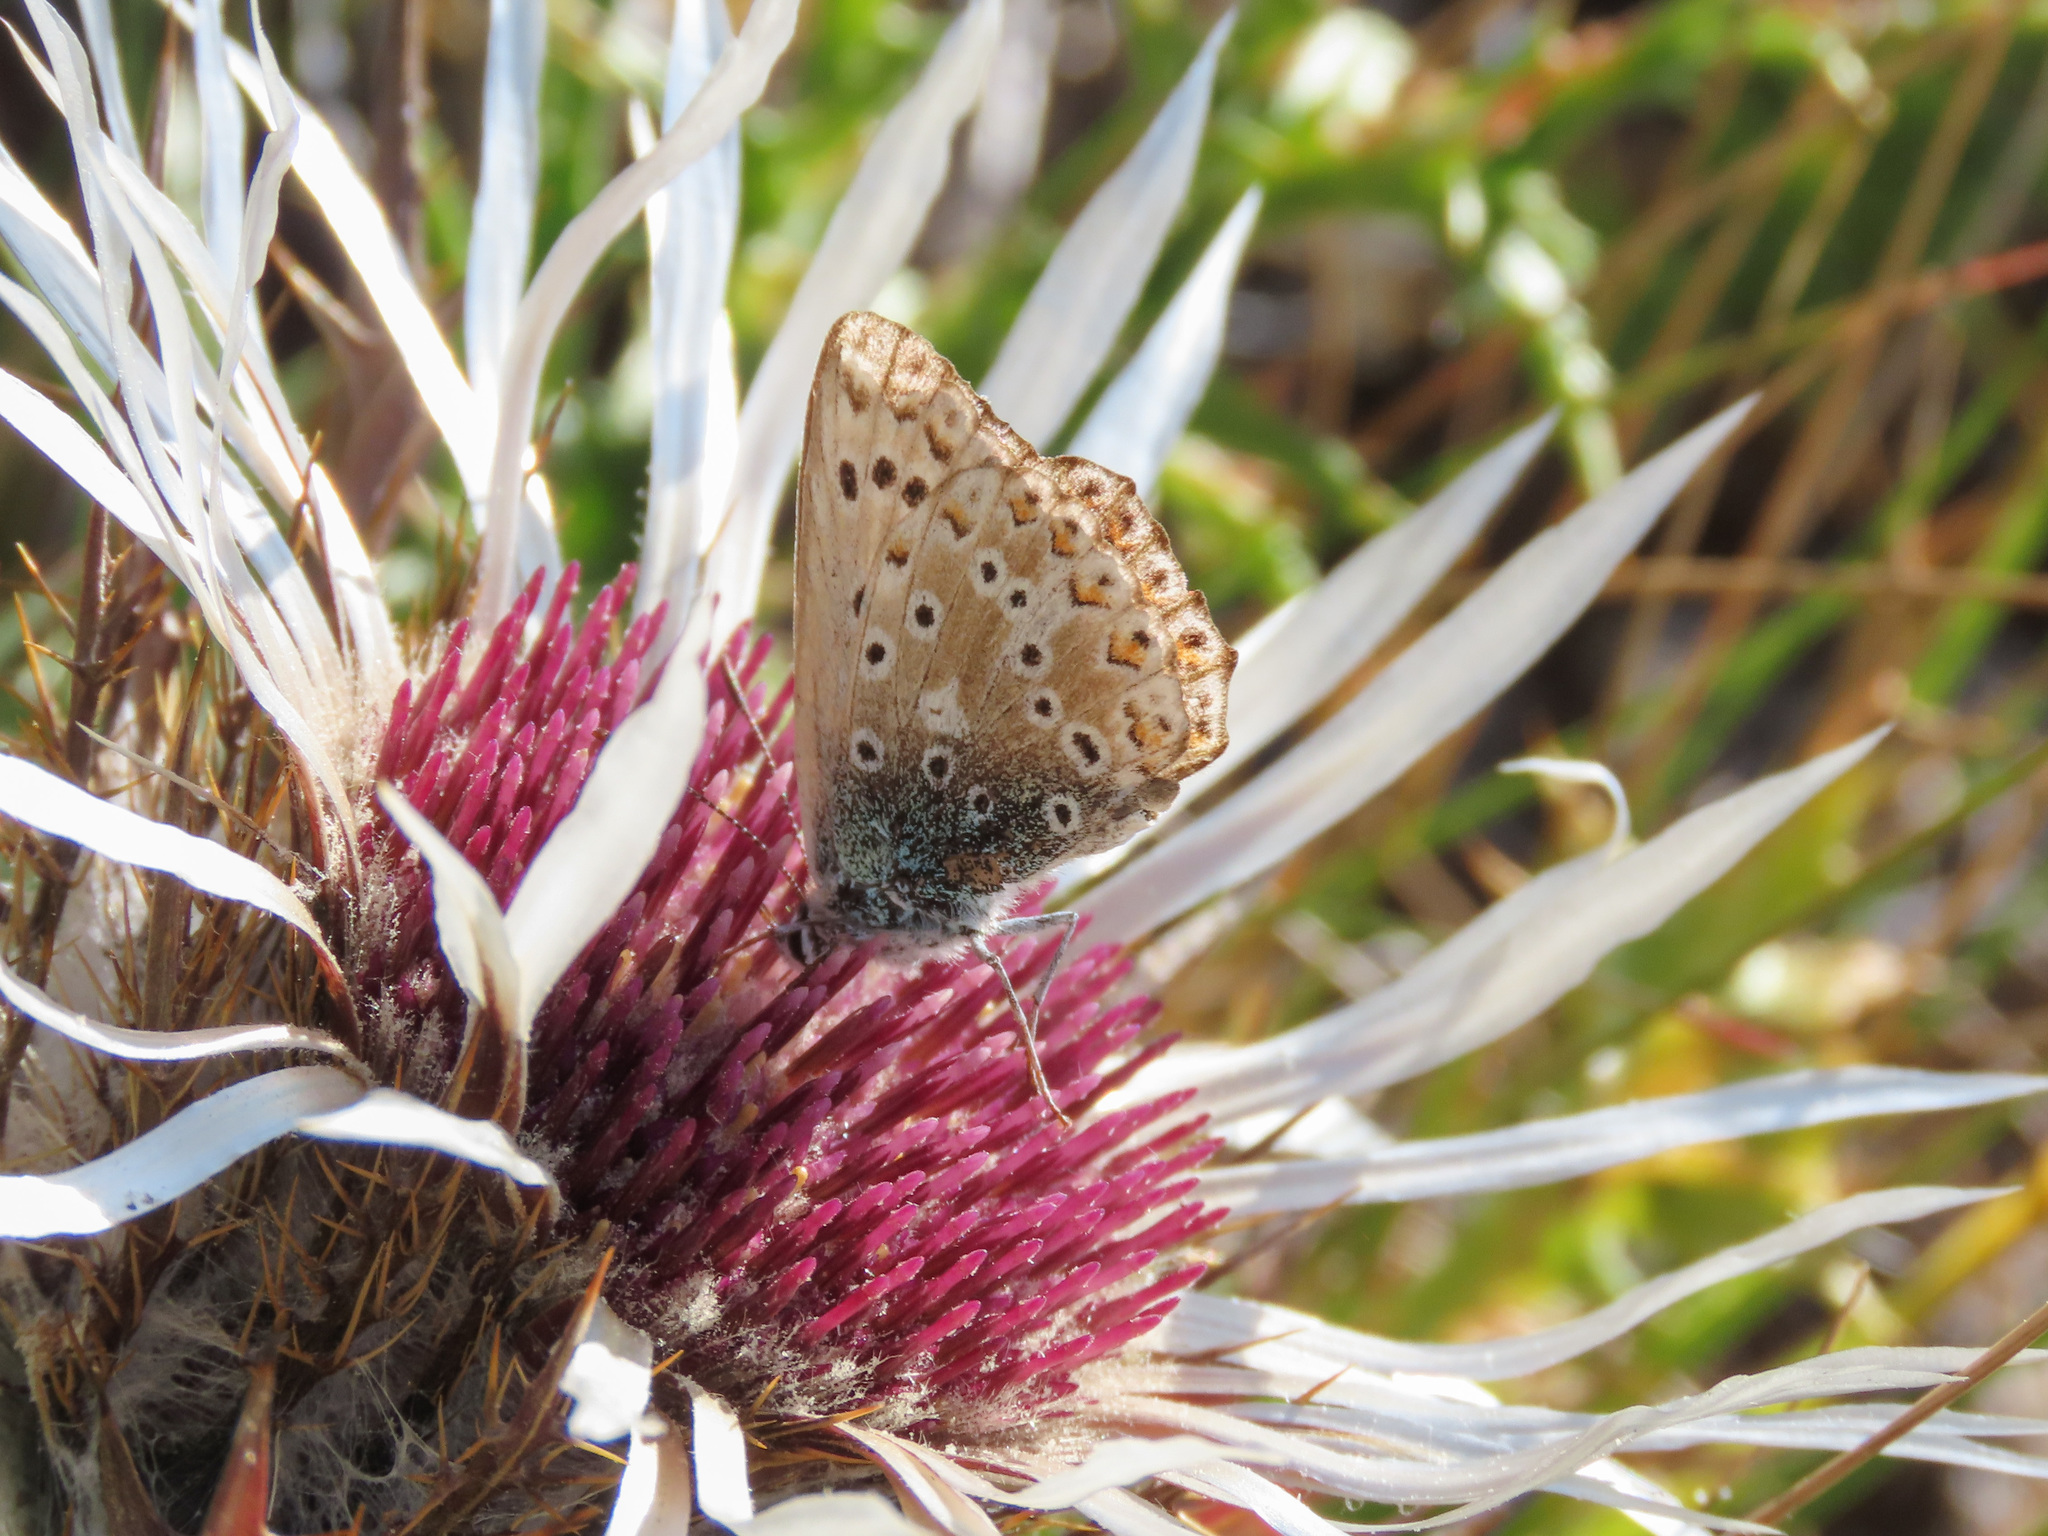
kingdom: Animalia
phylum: Arthropoda
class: Insecta
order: Lepidoptera
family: Lycaenidae
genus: Lysandra
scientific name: Lysandra coridon
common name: Chalkhill blue
